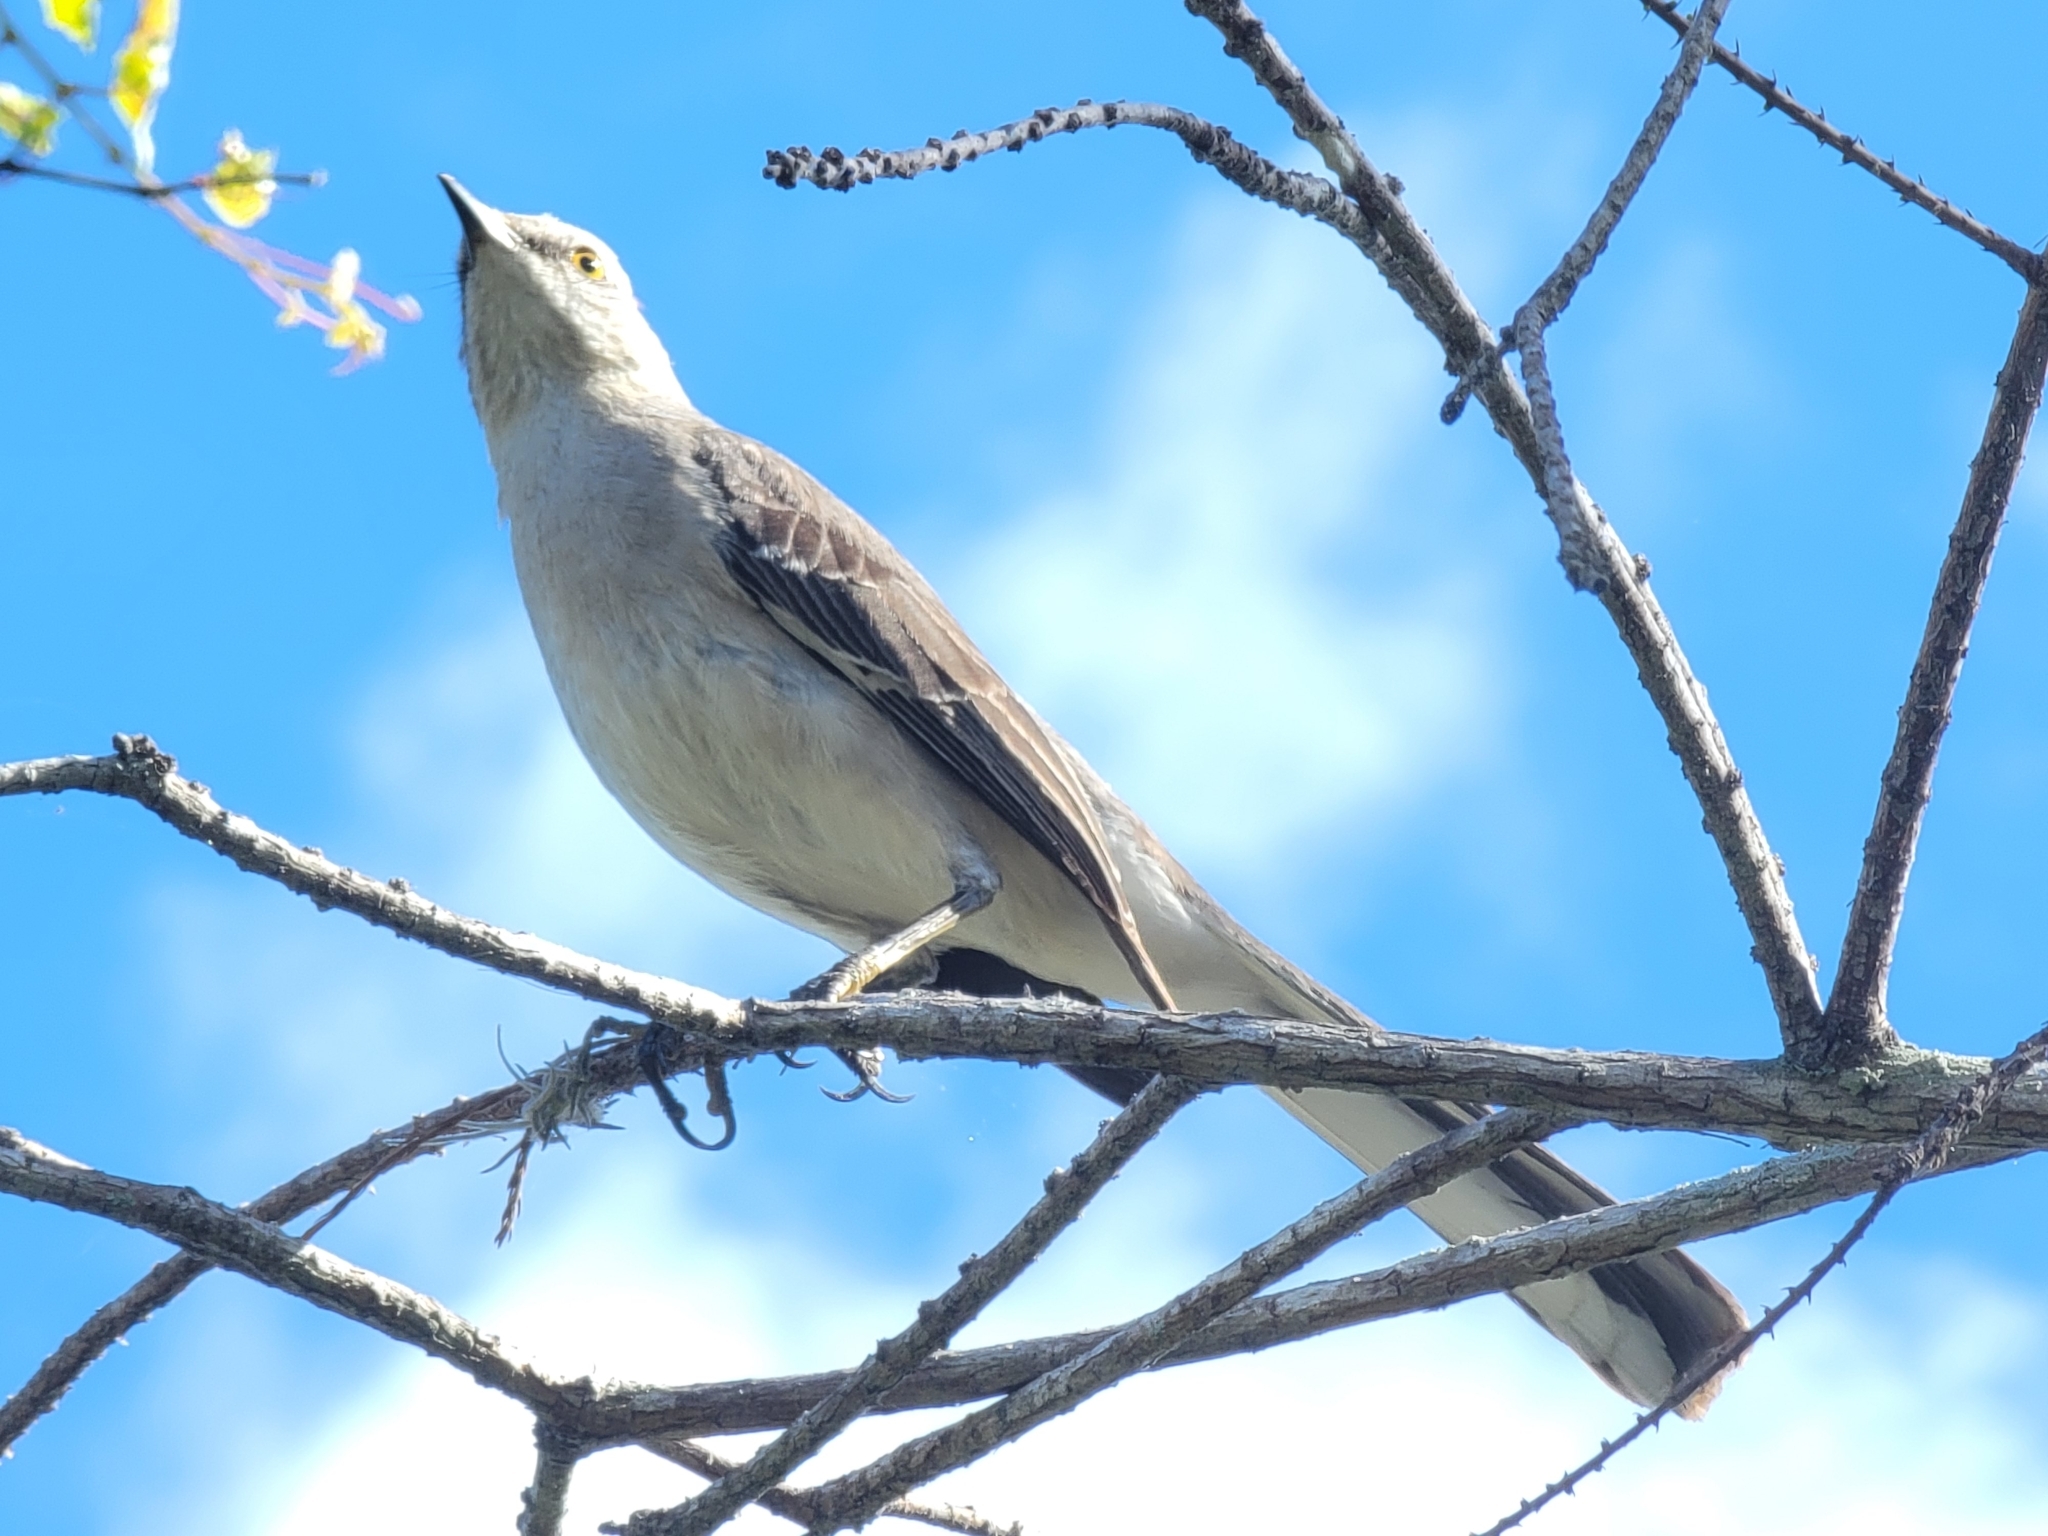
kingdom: Animalia
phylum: Chordata
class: Aves
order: Passeriformes
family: Mimidae
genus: Mimus
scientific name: Mimus polyglottos
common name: Northern mockingbird
